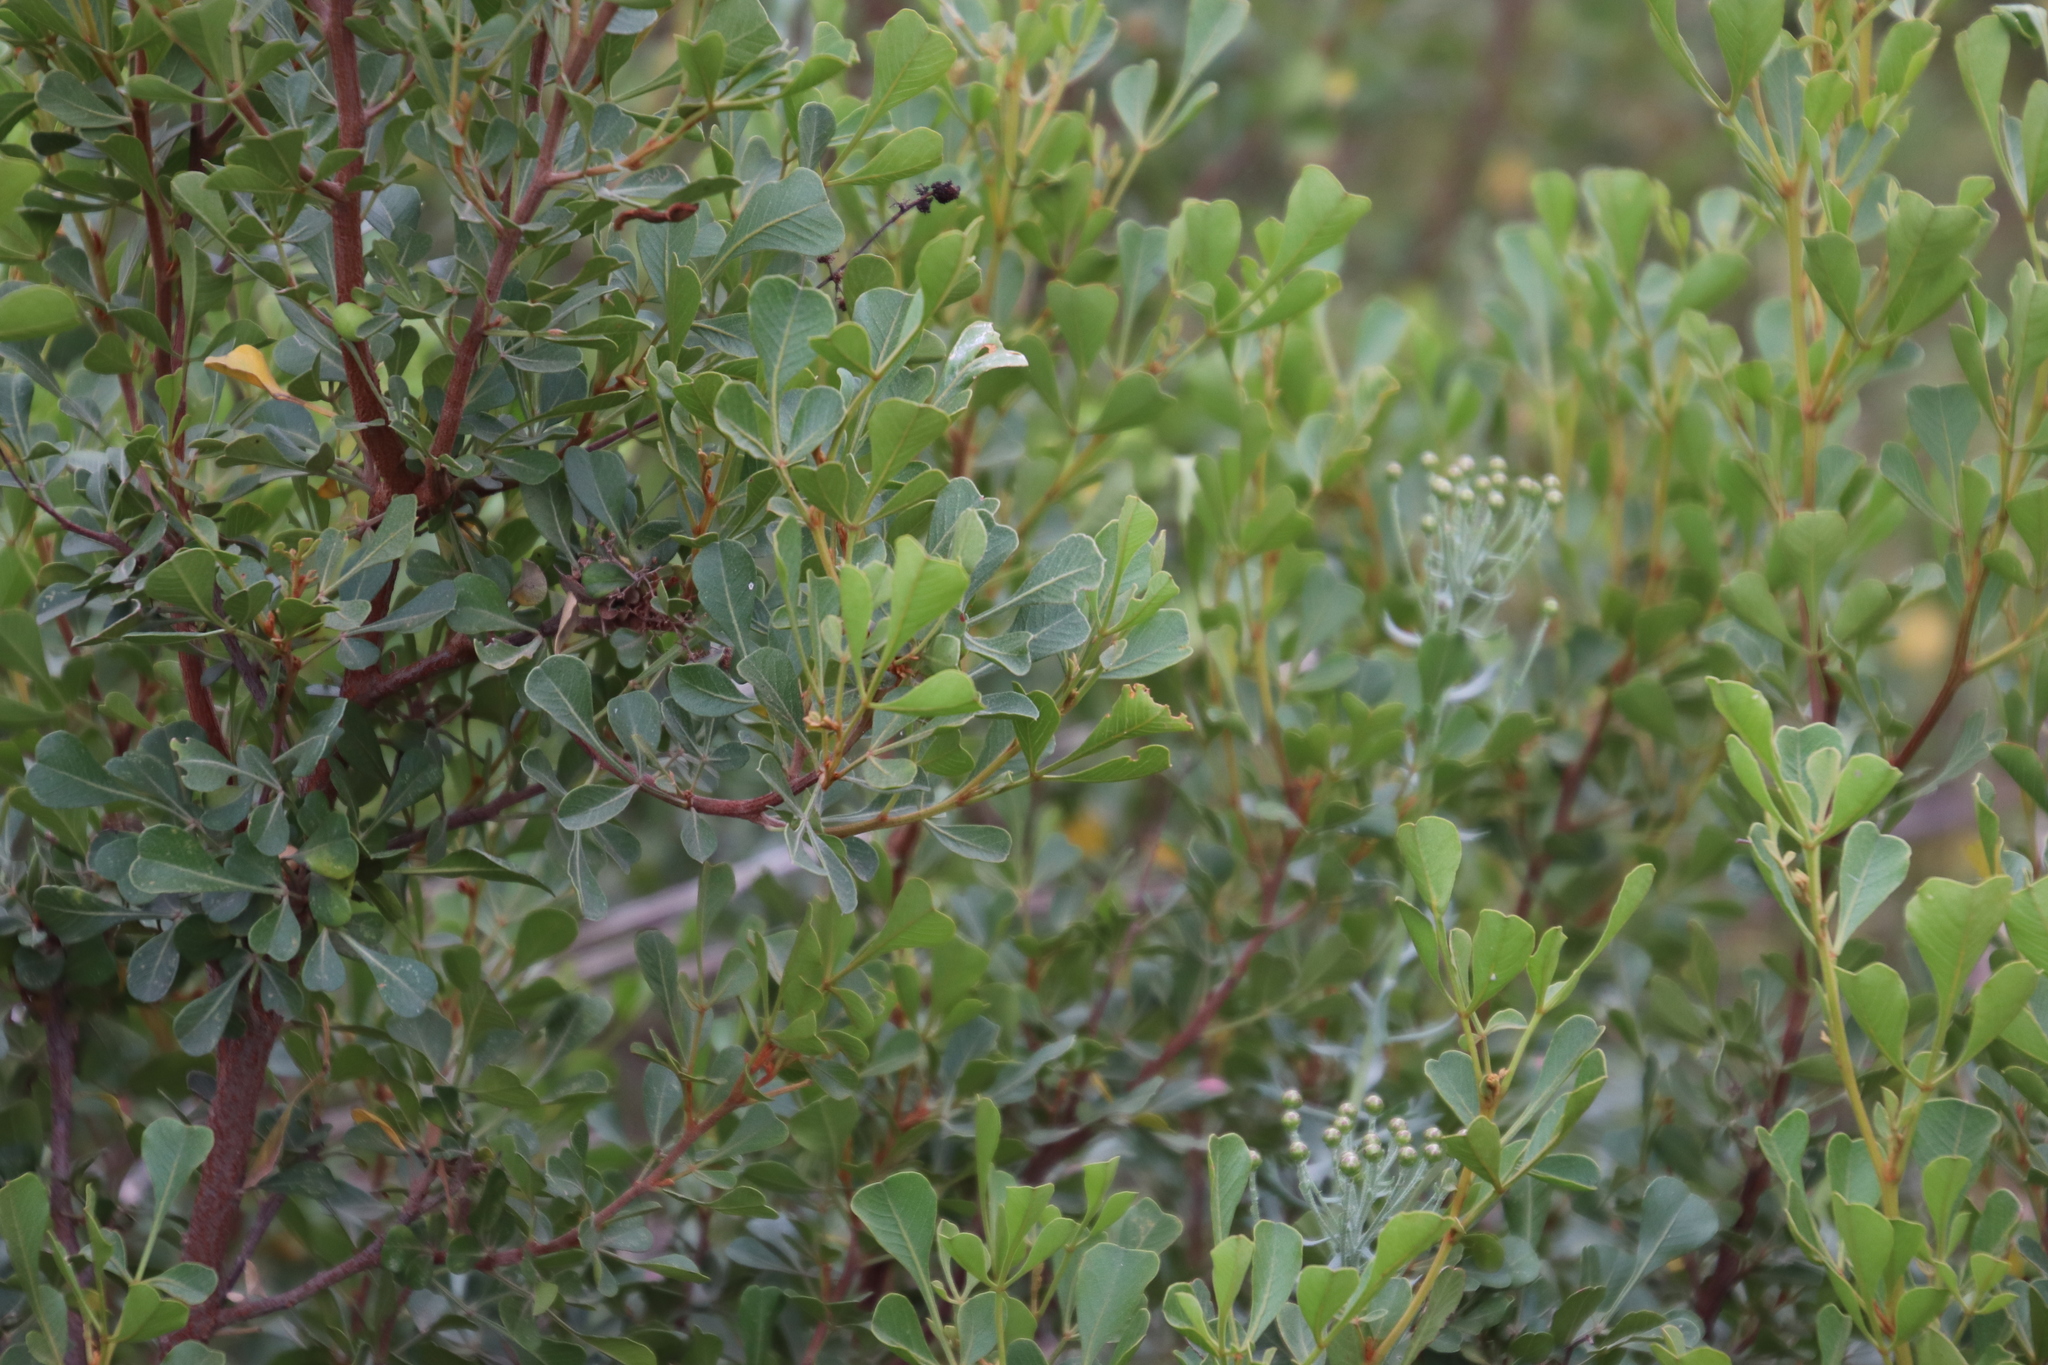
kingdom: Plantae
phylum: Tracheophyta
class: Magnoliopsida
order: Sapindales
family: Anacardiaceae
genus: Searsia
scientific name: Searsia pallens
